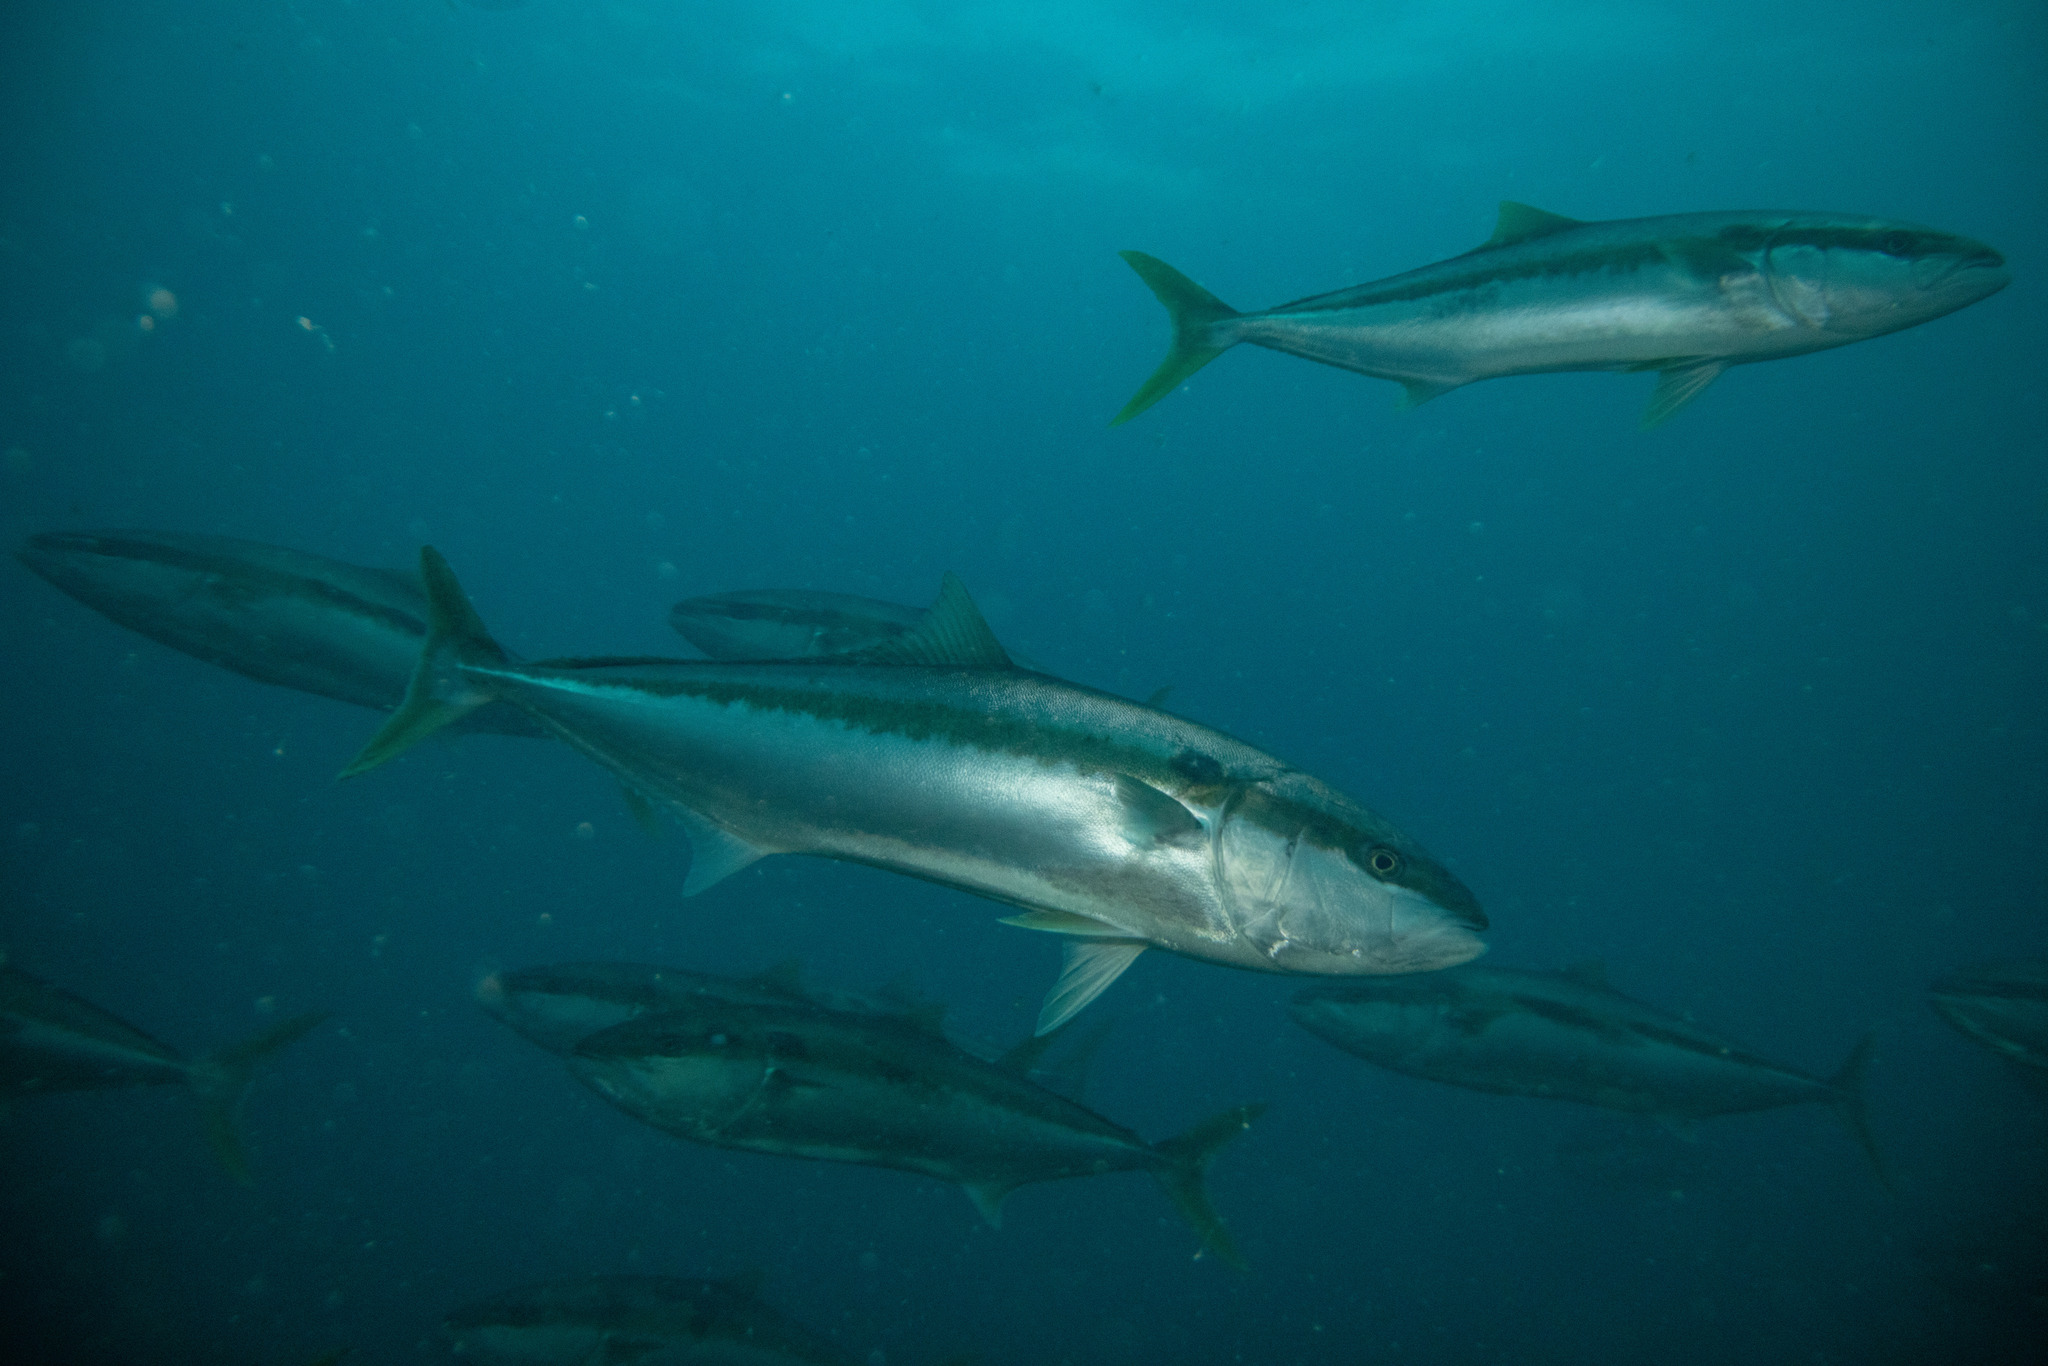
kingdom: Animalia
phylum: Chordata
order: Perciformes
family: Carangidae
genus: Seriola
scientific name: Seriola lalandi
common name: Yellowtail kingfish
